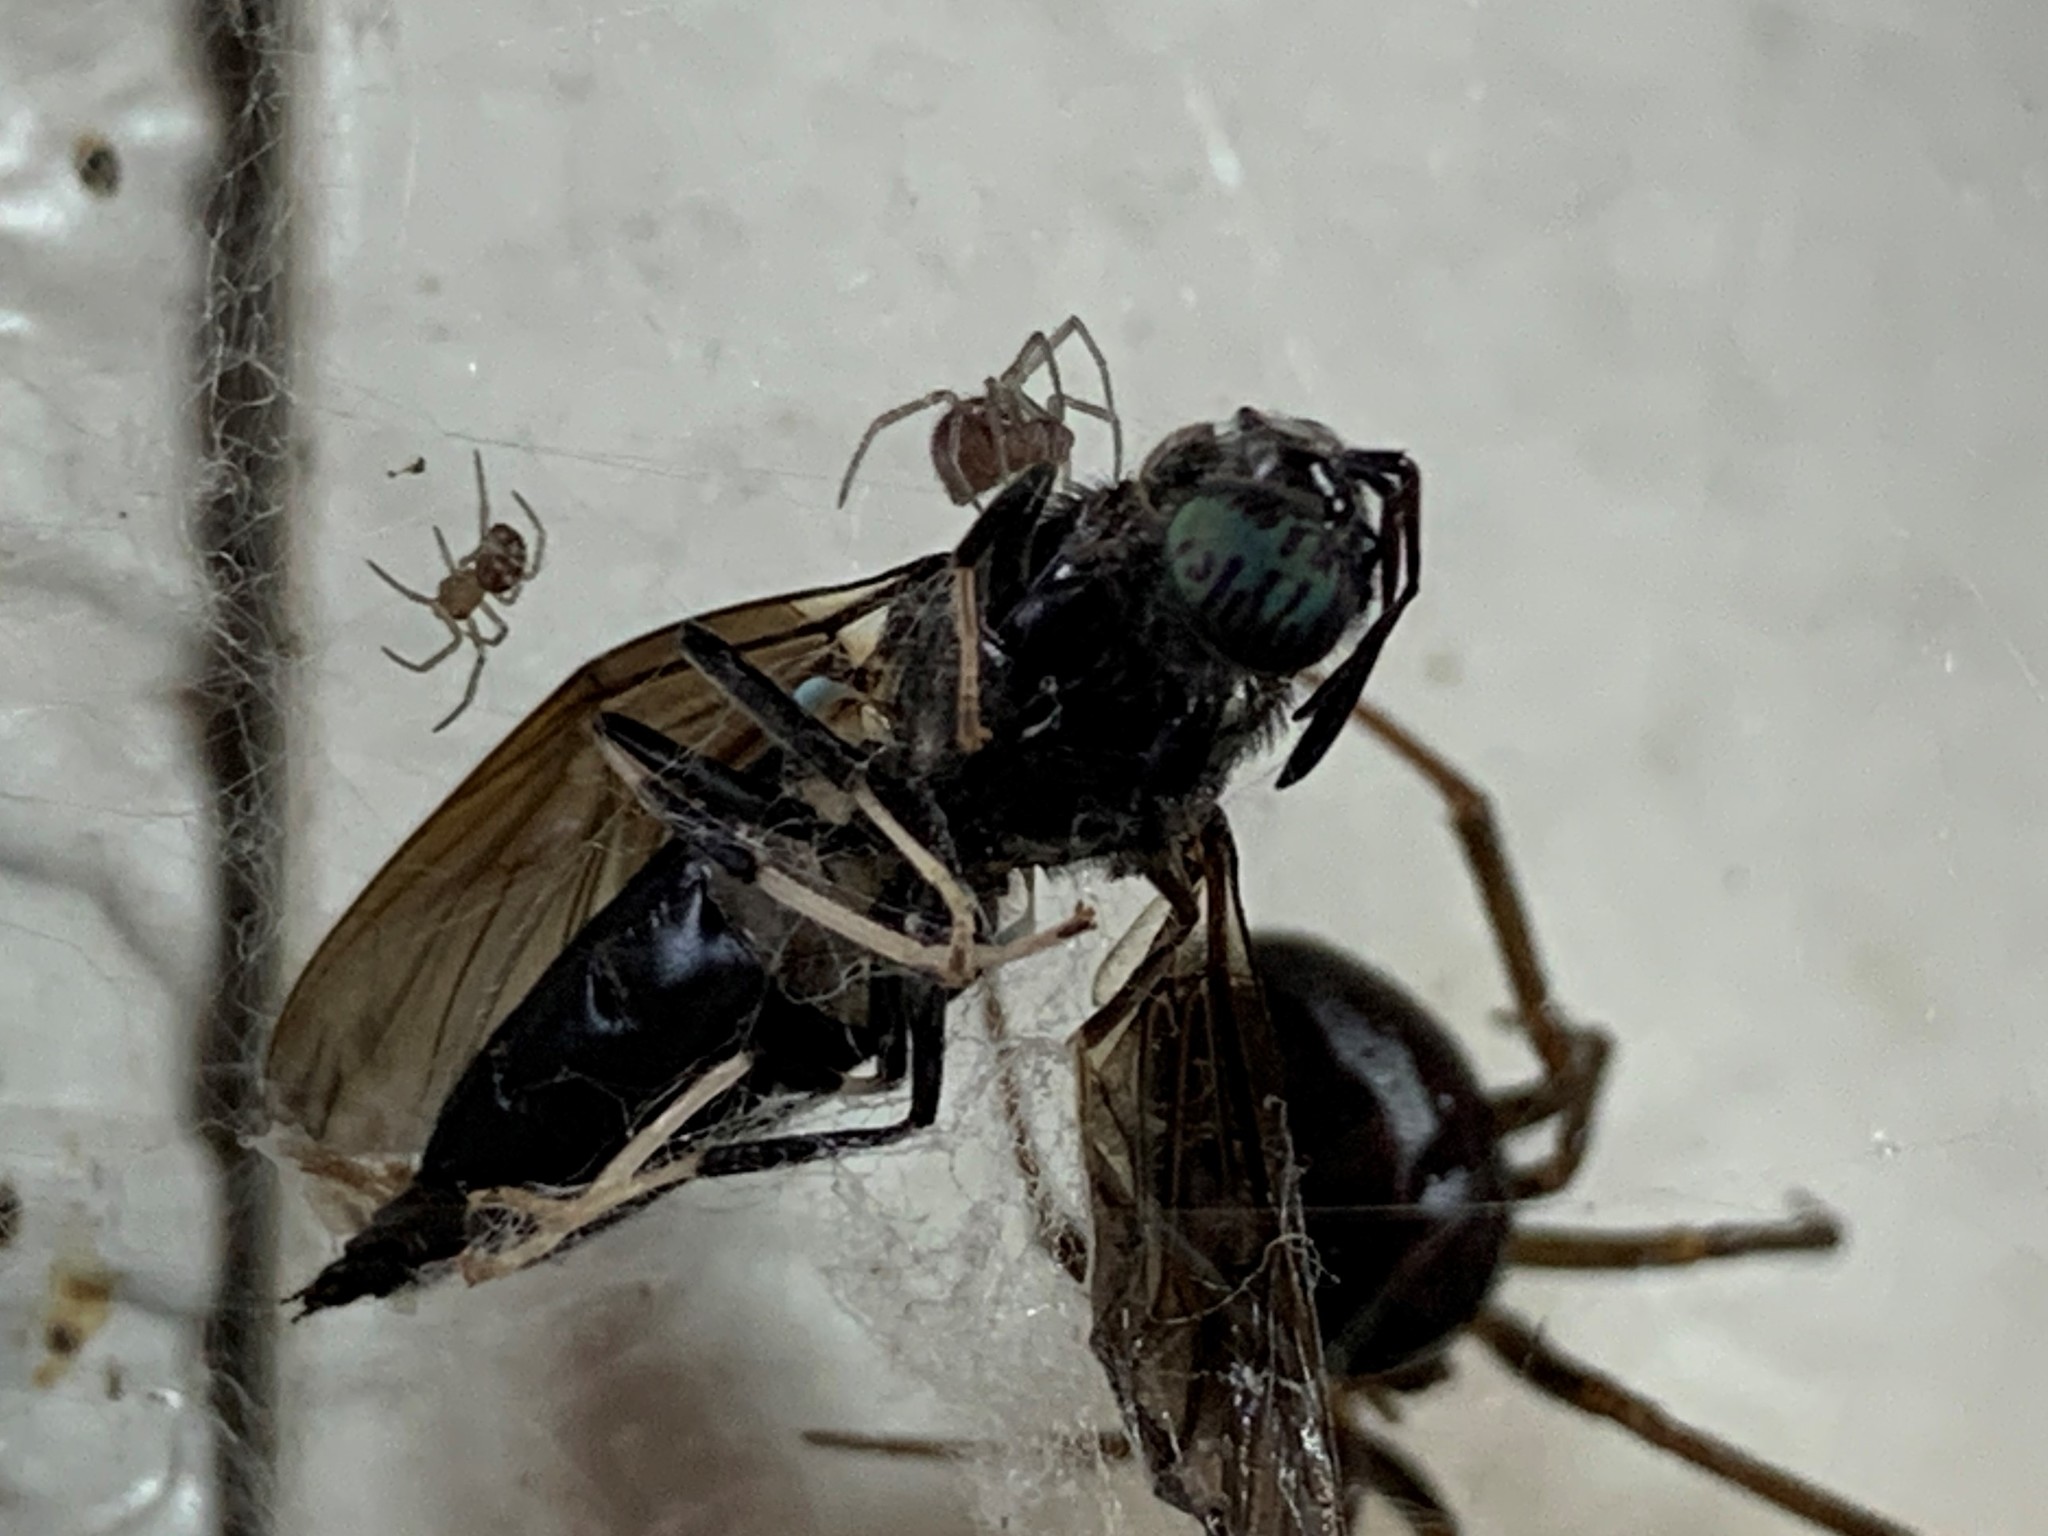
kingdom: Animalia
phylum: Arthropoda
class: Insecta
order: Diptera
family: Stratiomyidae
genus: Hermetia
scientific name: Hermetia illucens
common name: Black soldier fly
